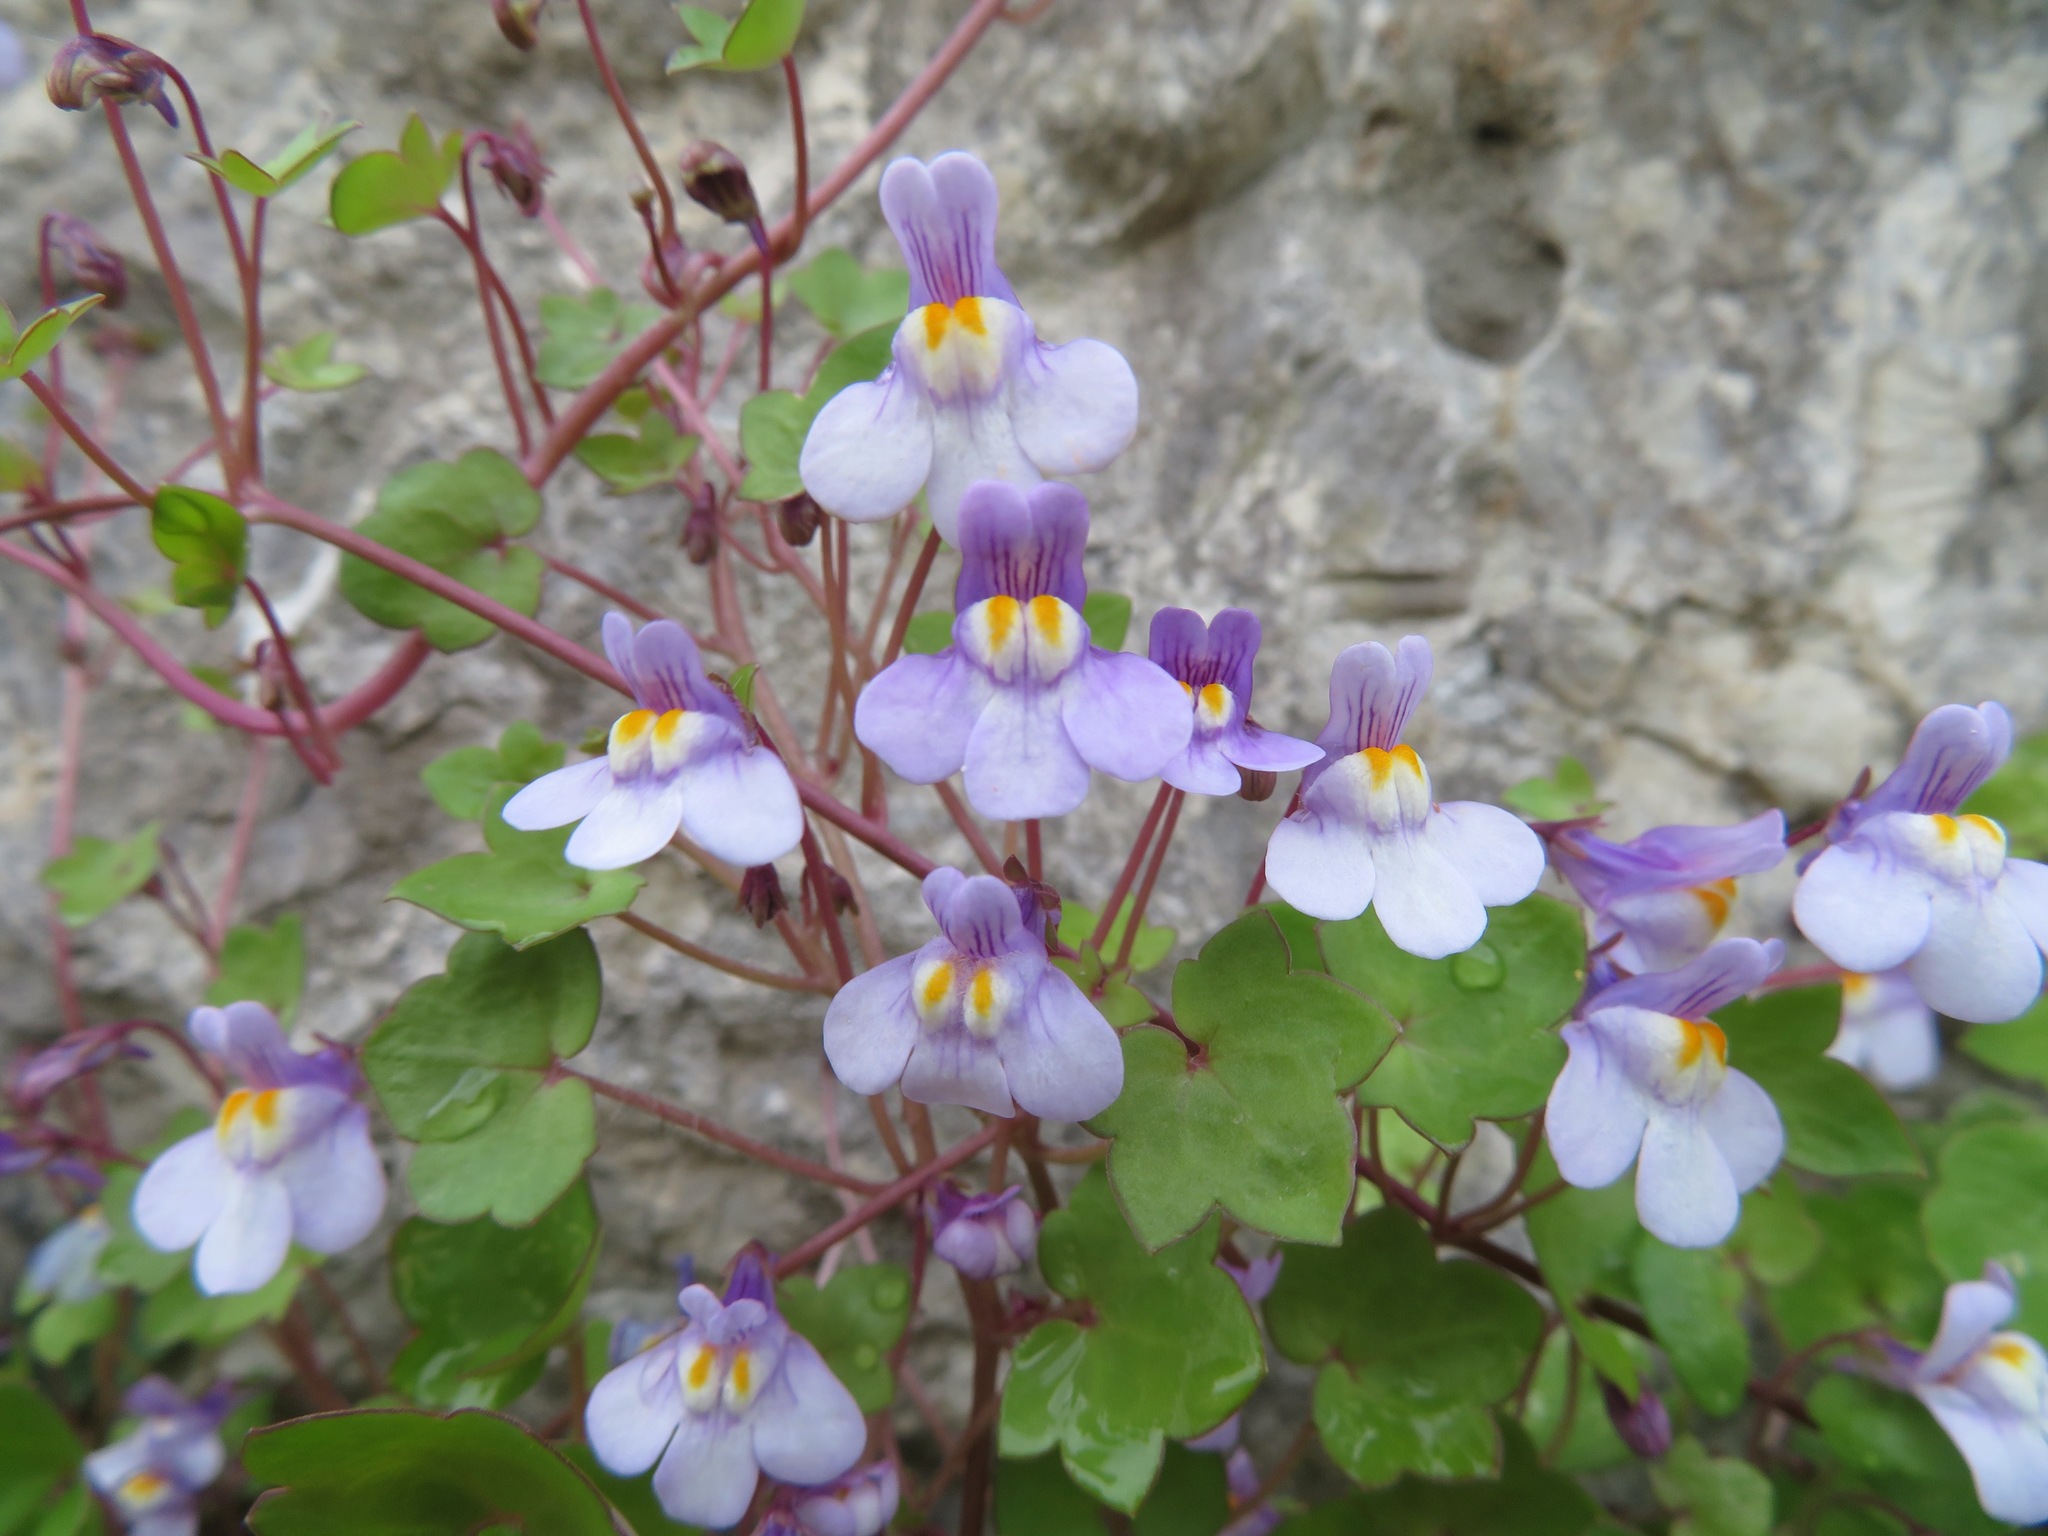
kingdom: Plantae
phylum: Tracheophyta
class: Magnoliopsida
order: Lamiales
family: Plantaginaceae
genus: Cymbalaria
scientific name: Cymbalaria muralis
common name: Ivy-leaved toadflax
